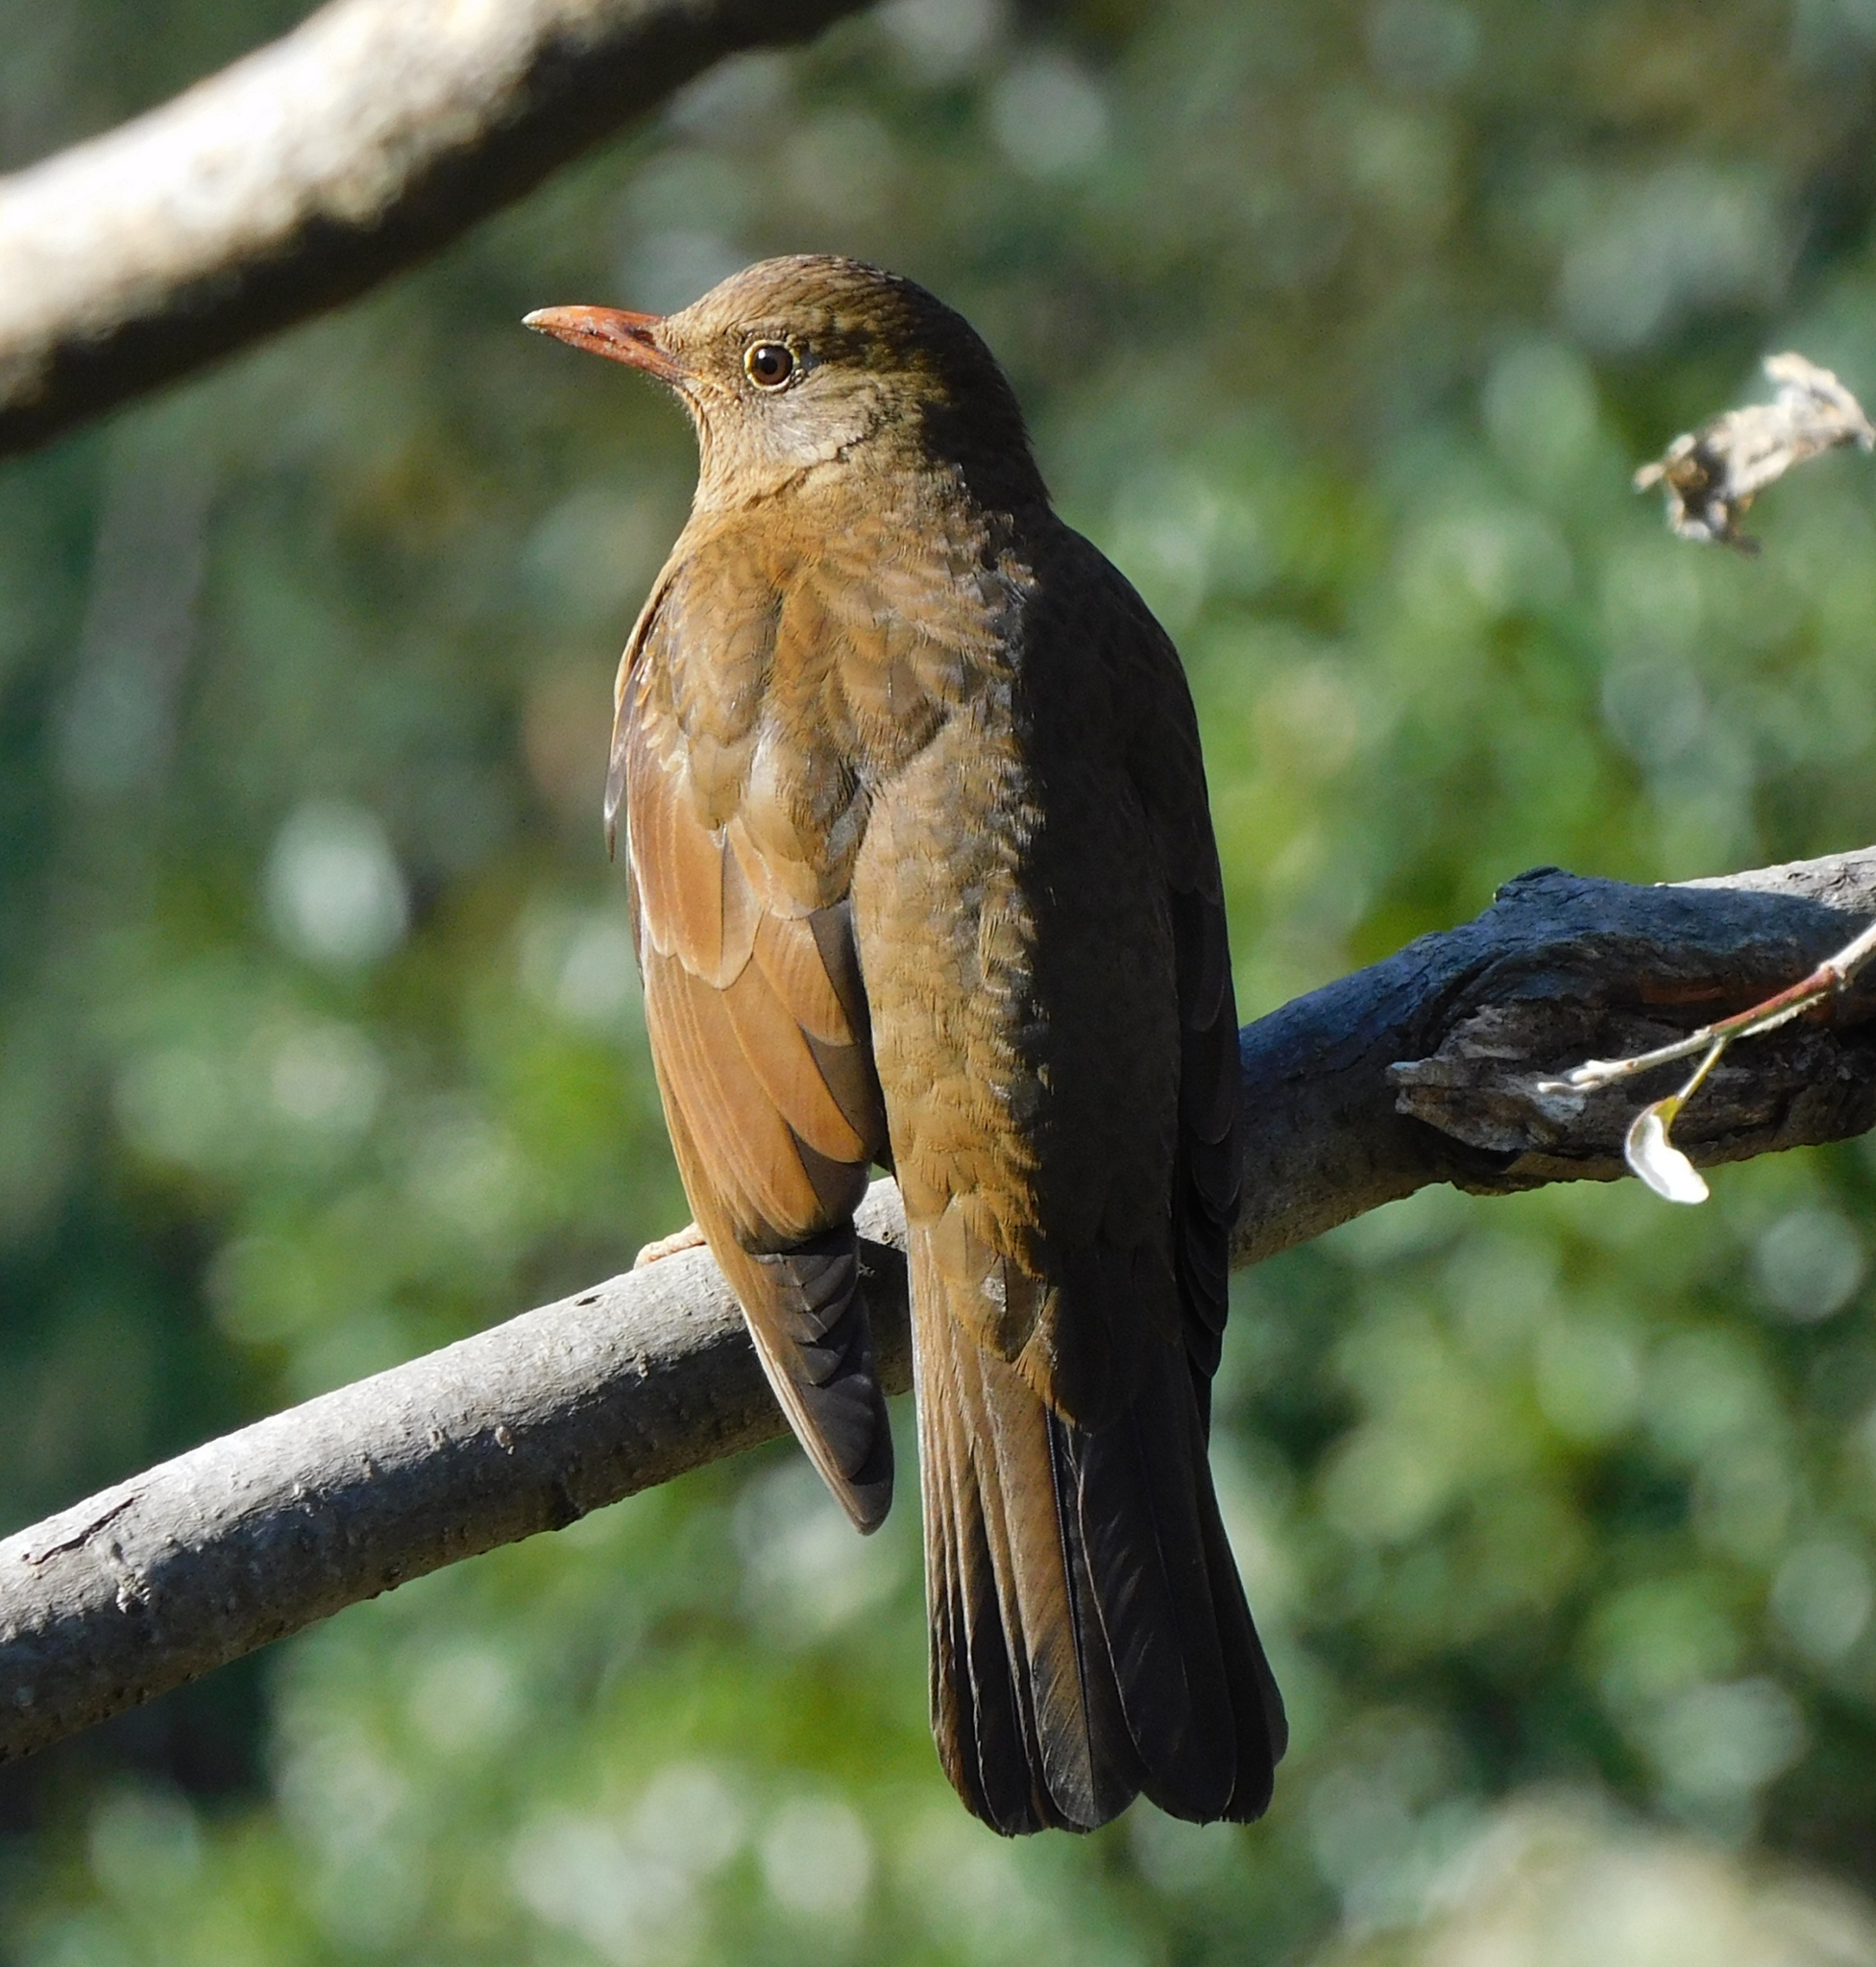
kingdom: Animalia
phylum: Chordata
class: Aves
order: Passeriformes
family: Turdidae
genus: Turdus
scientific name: Turdus boulboul
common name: Grey-winged blackbird
